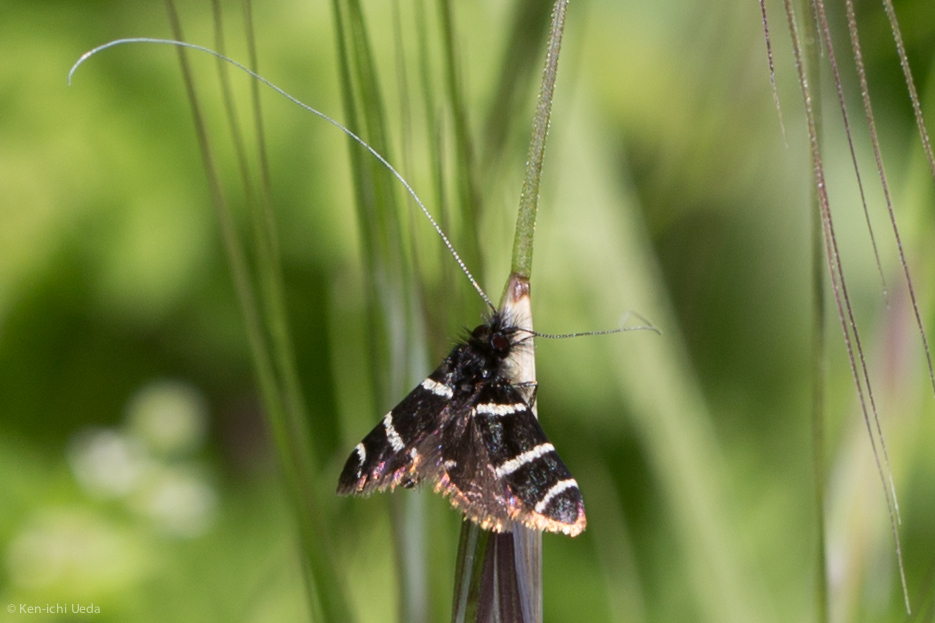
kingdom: Animalia
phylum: Arthropoda
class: Insecta
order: Lepidoptera
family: Adelidae
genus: Adela
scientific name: Adela trigrapha
